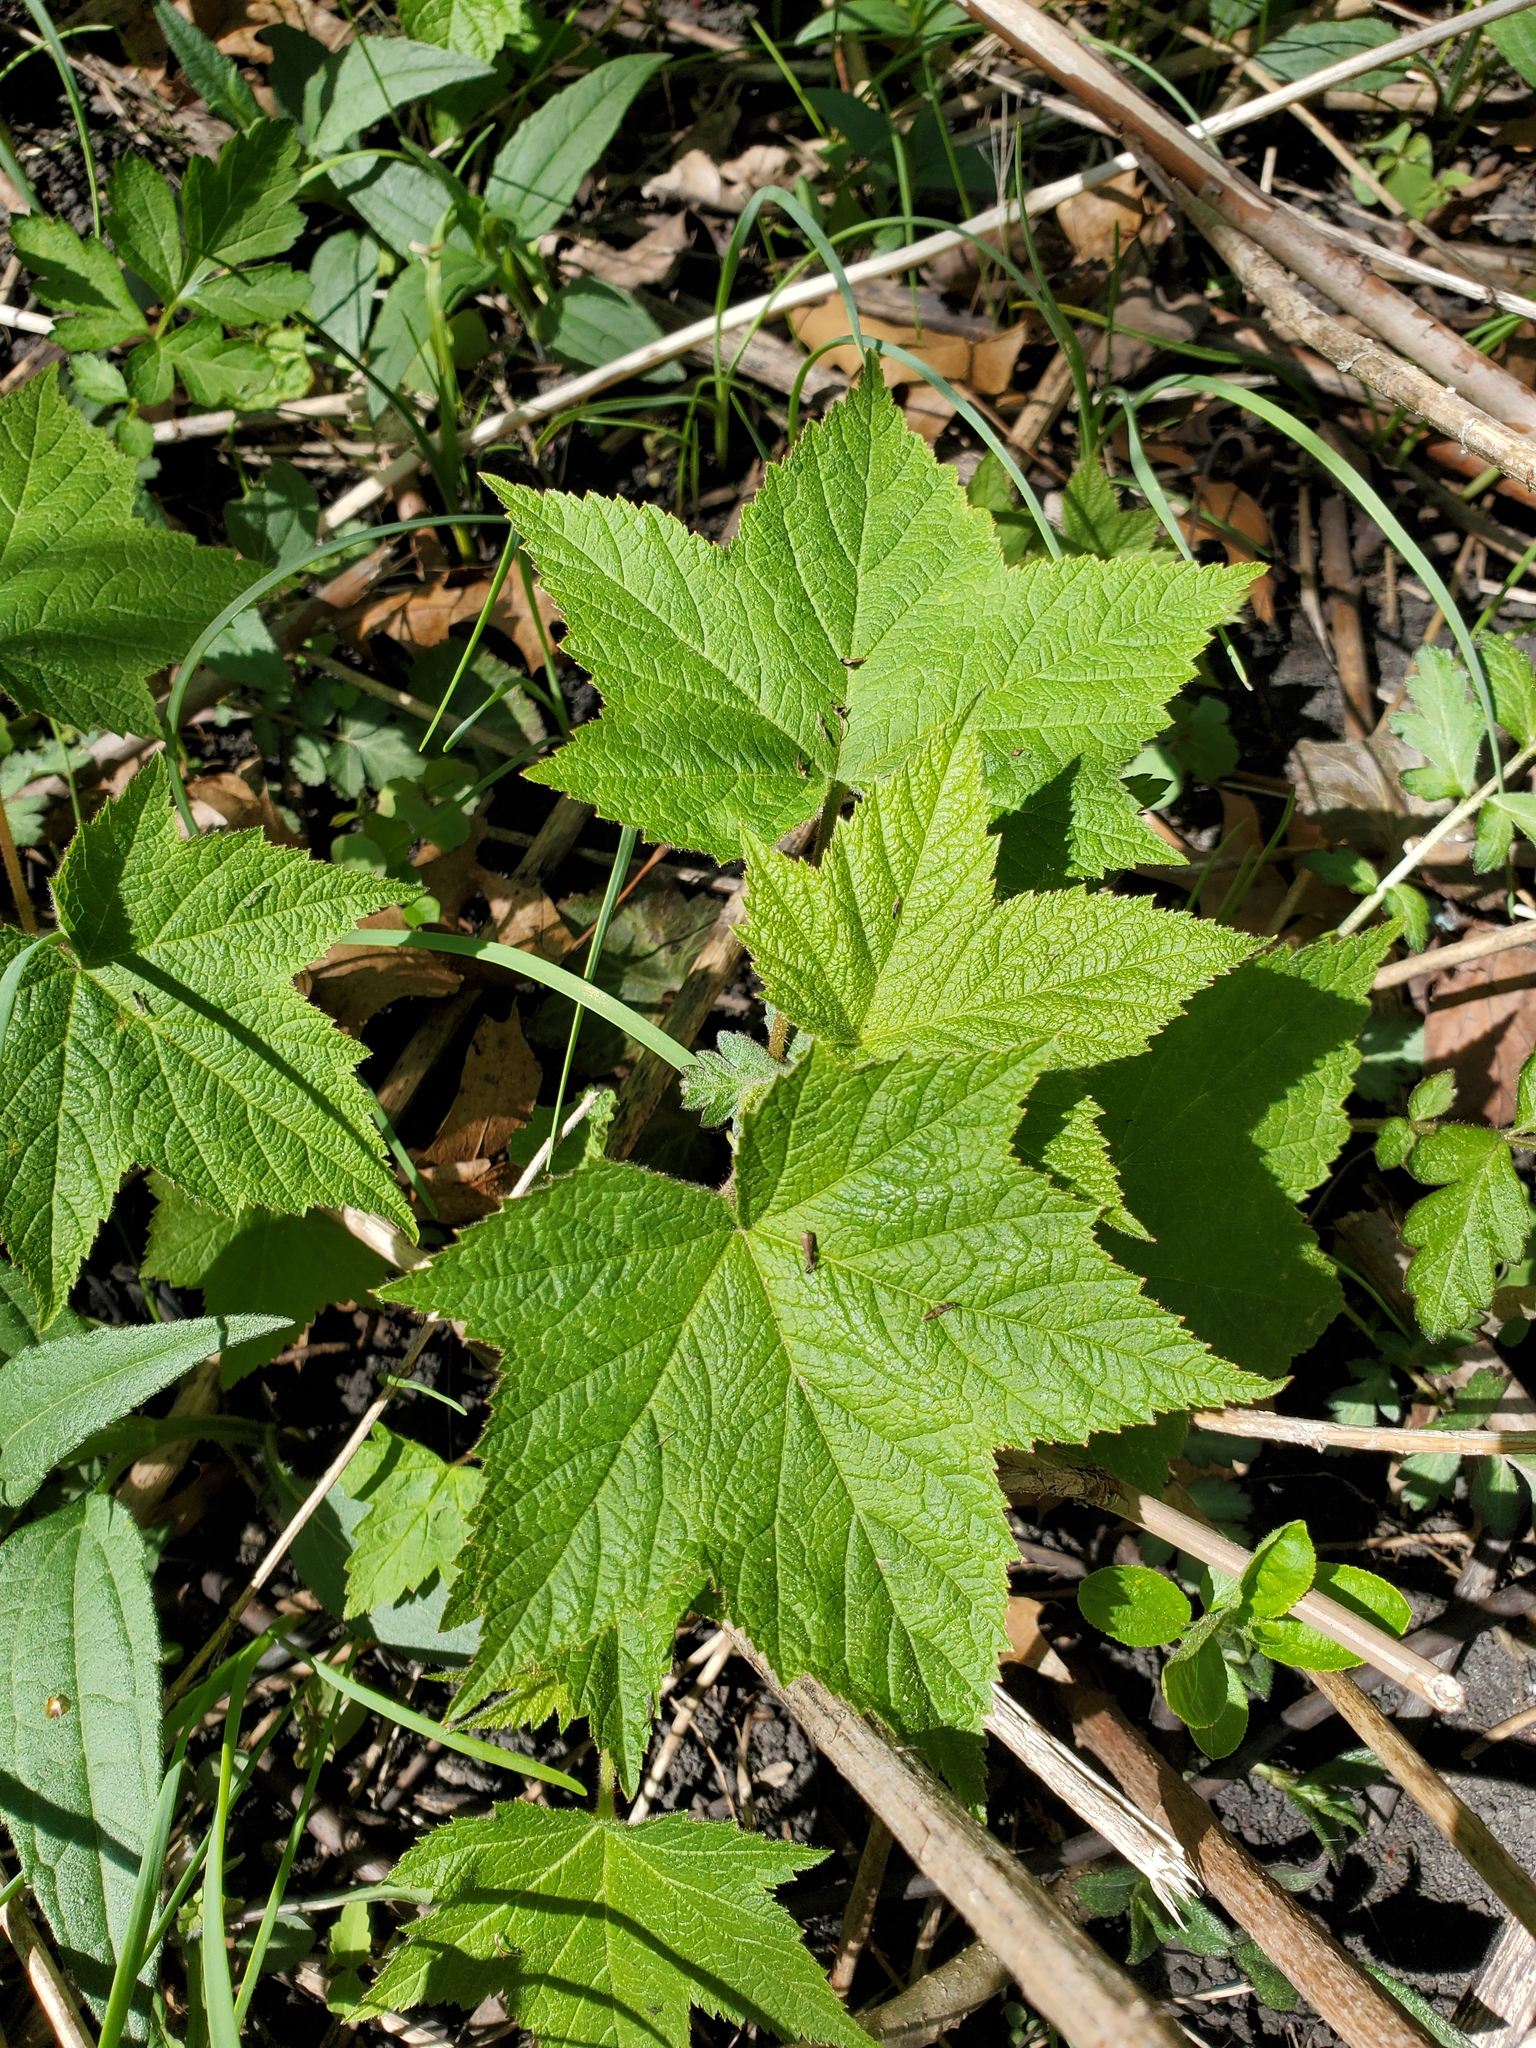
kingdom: Plantae
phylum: Tracheophyta
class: Magnoliopsida
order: Rosales
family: Rosaceae
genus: Rubus
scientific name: Rubus odoratus
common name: Purple-flowered raspberry
